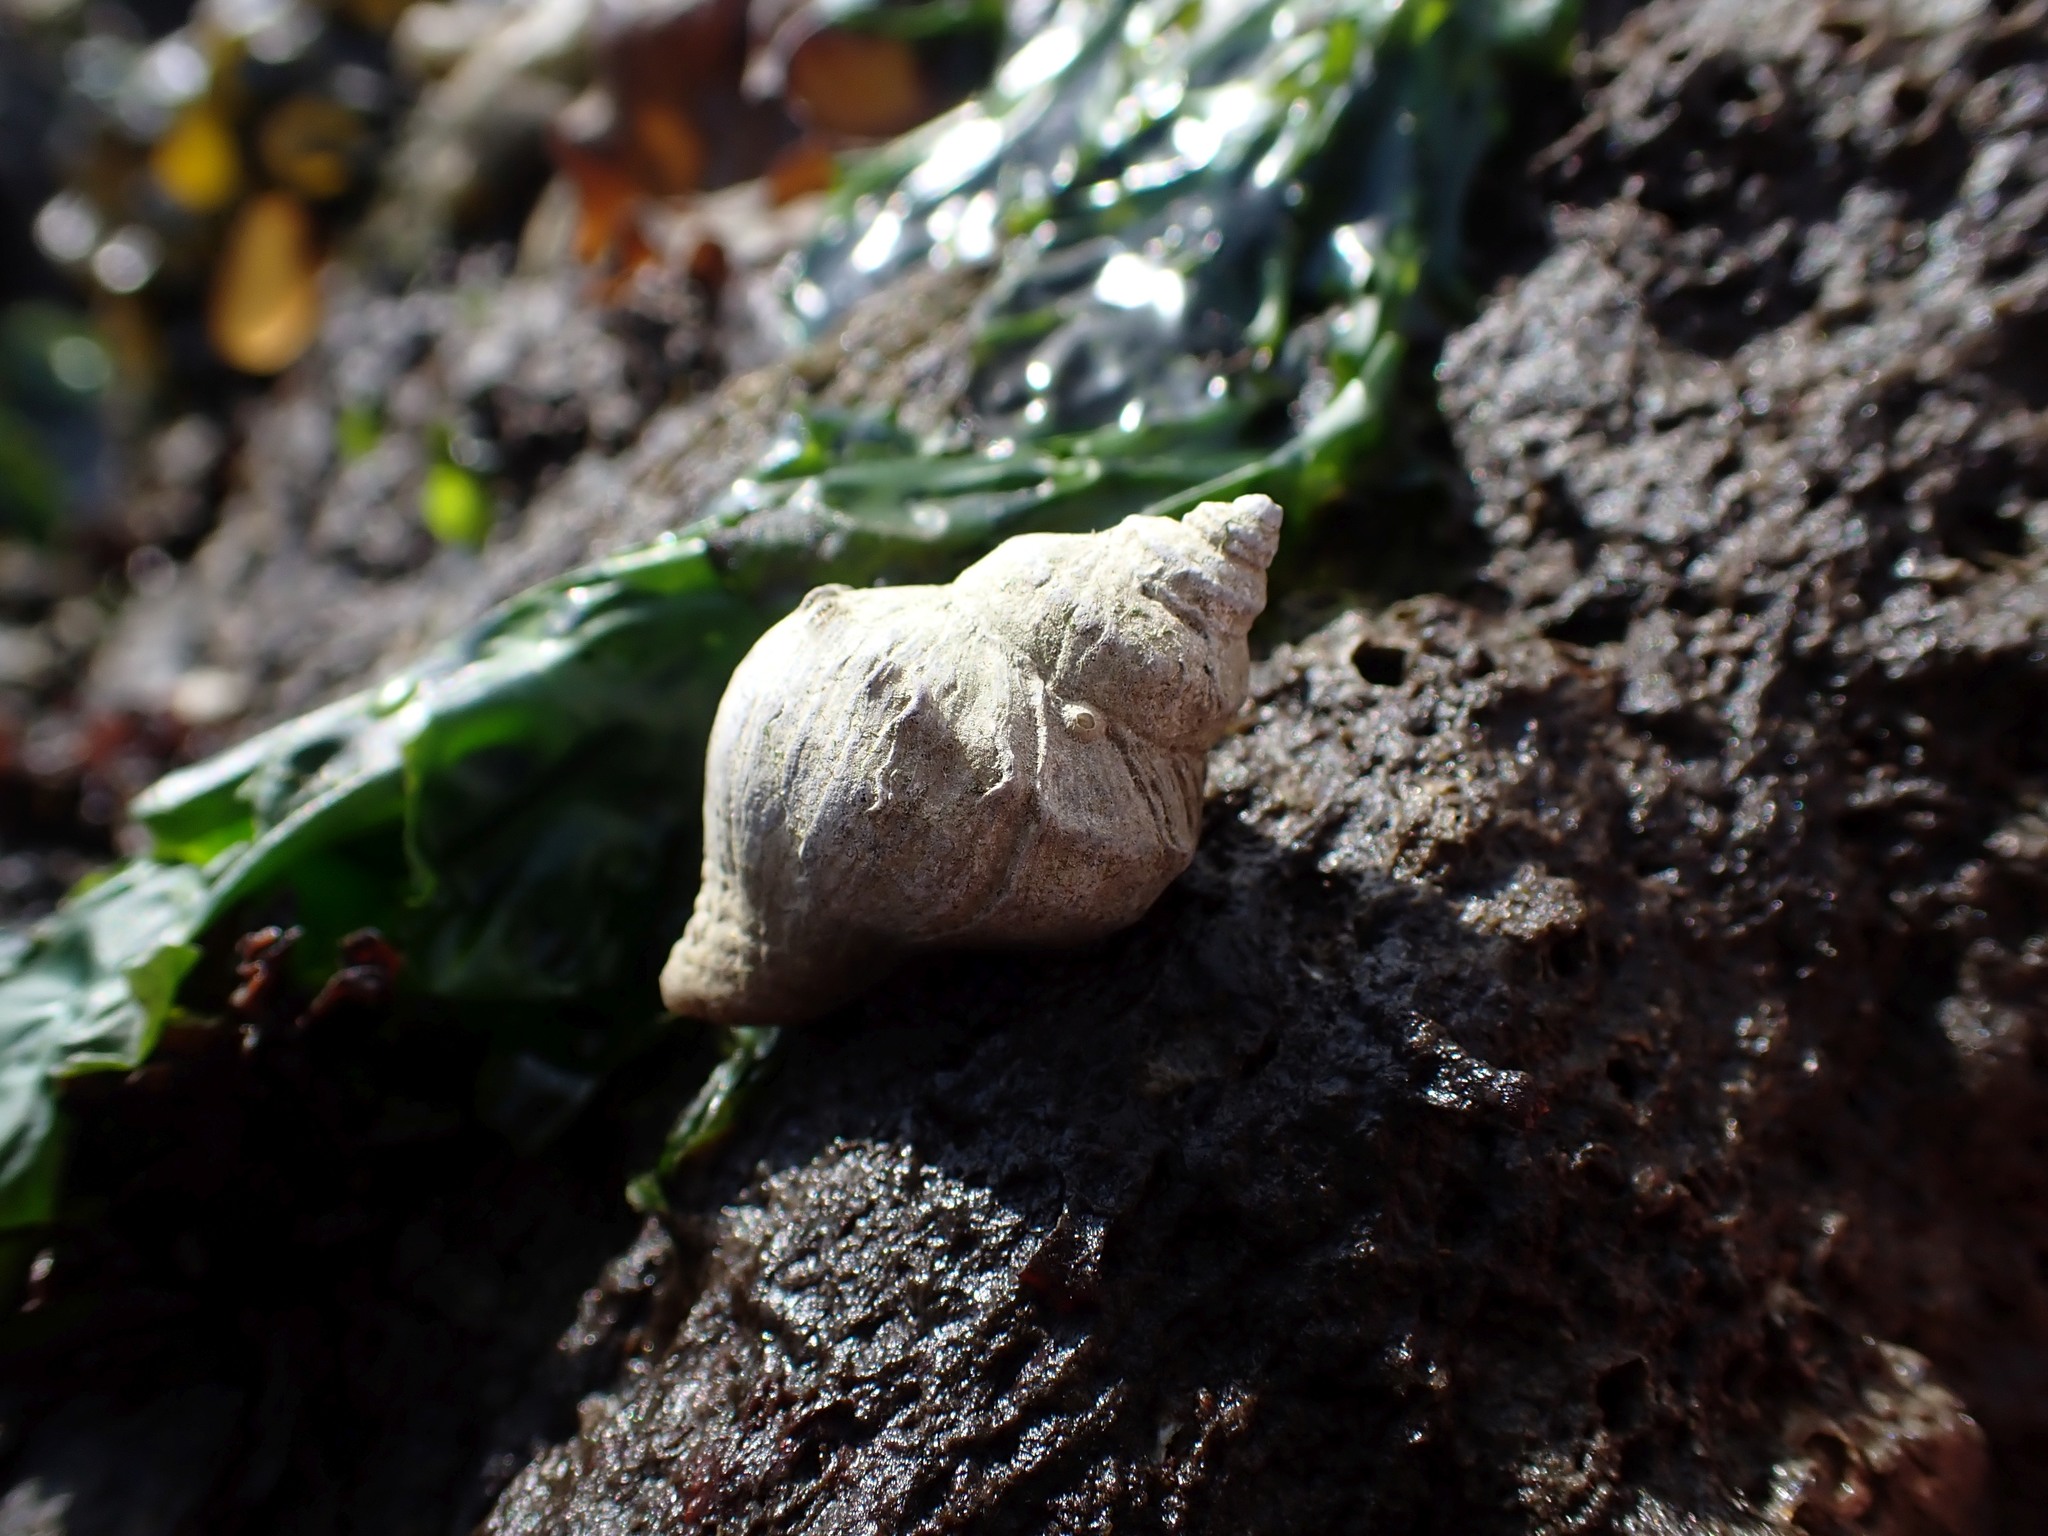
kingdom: Animalia
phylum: Mollusca
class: Gastropoda
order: Neogastropoda
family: Muricidae
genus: Nucella
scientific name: Nucella lamellosa
